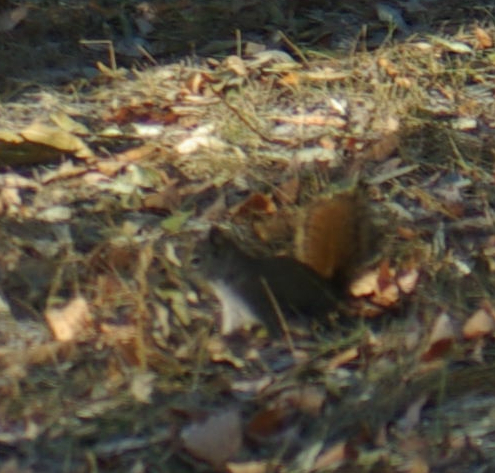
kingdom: Animalia
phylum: Chordata
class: Mammalia
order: Rodentia
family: Sciuridae
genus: Tamiasciurus
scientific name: Tamiasciurus hudsonicus
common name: Red squirrel
